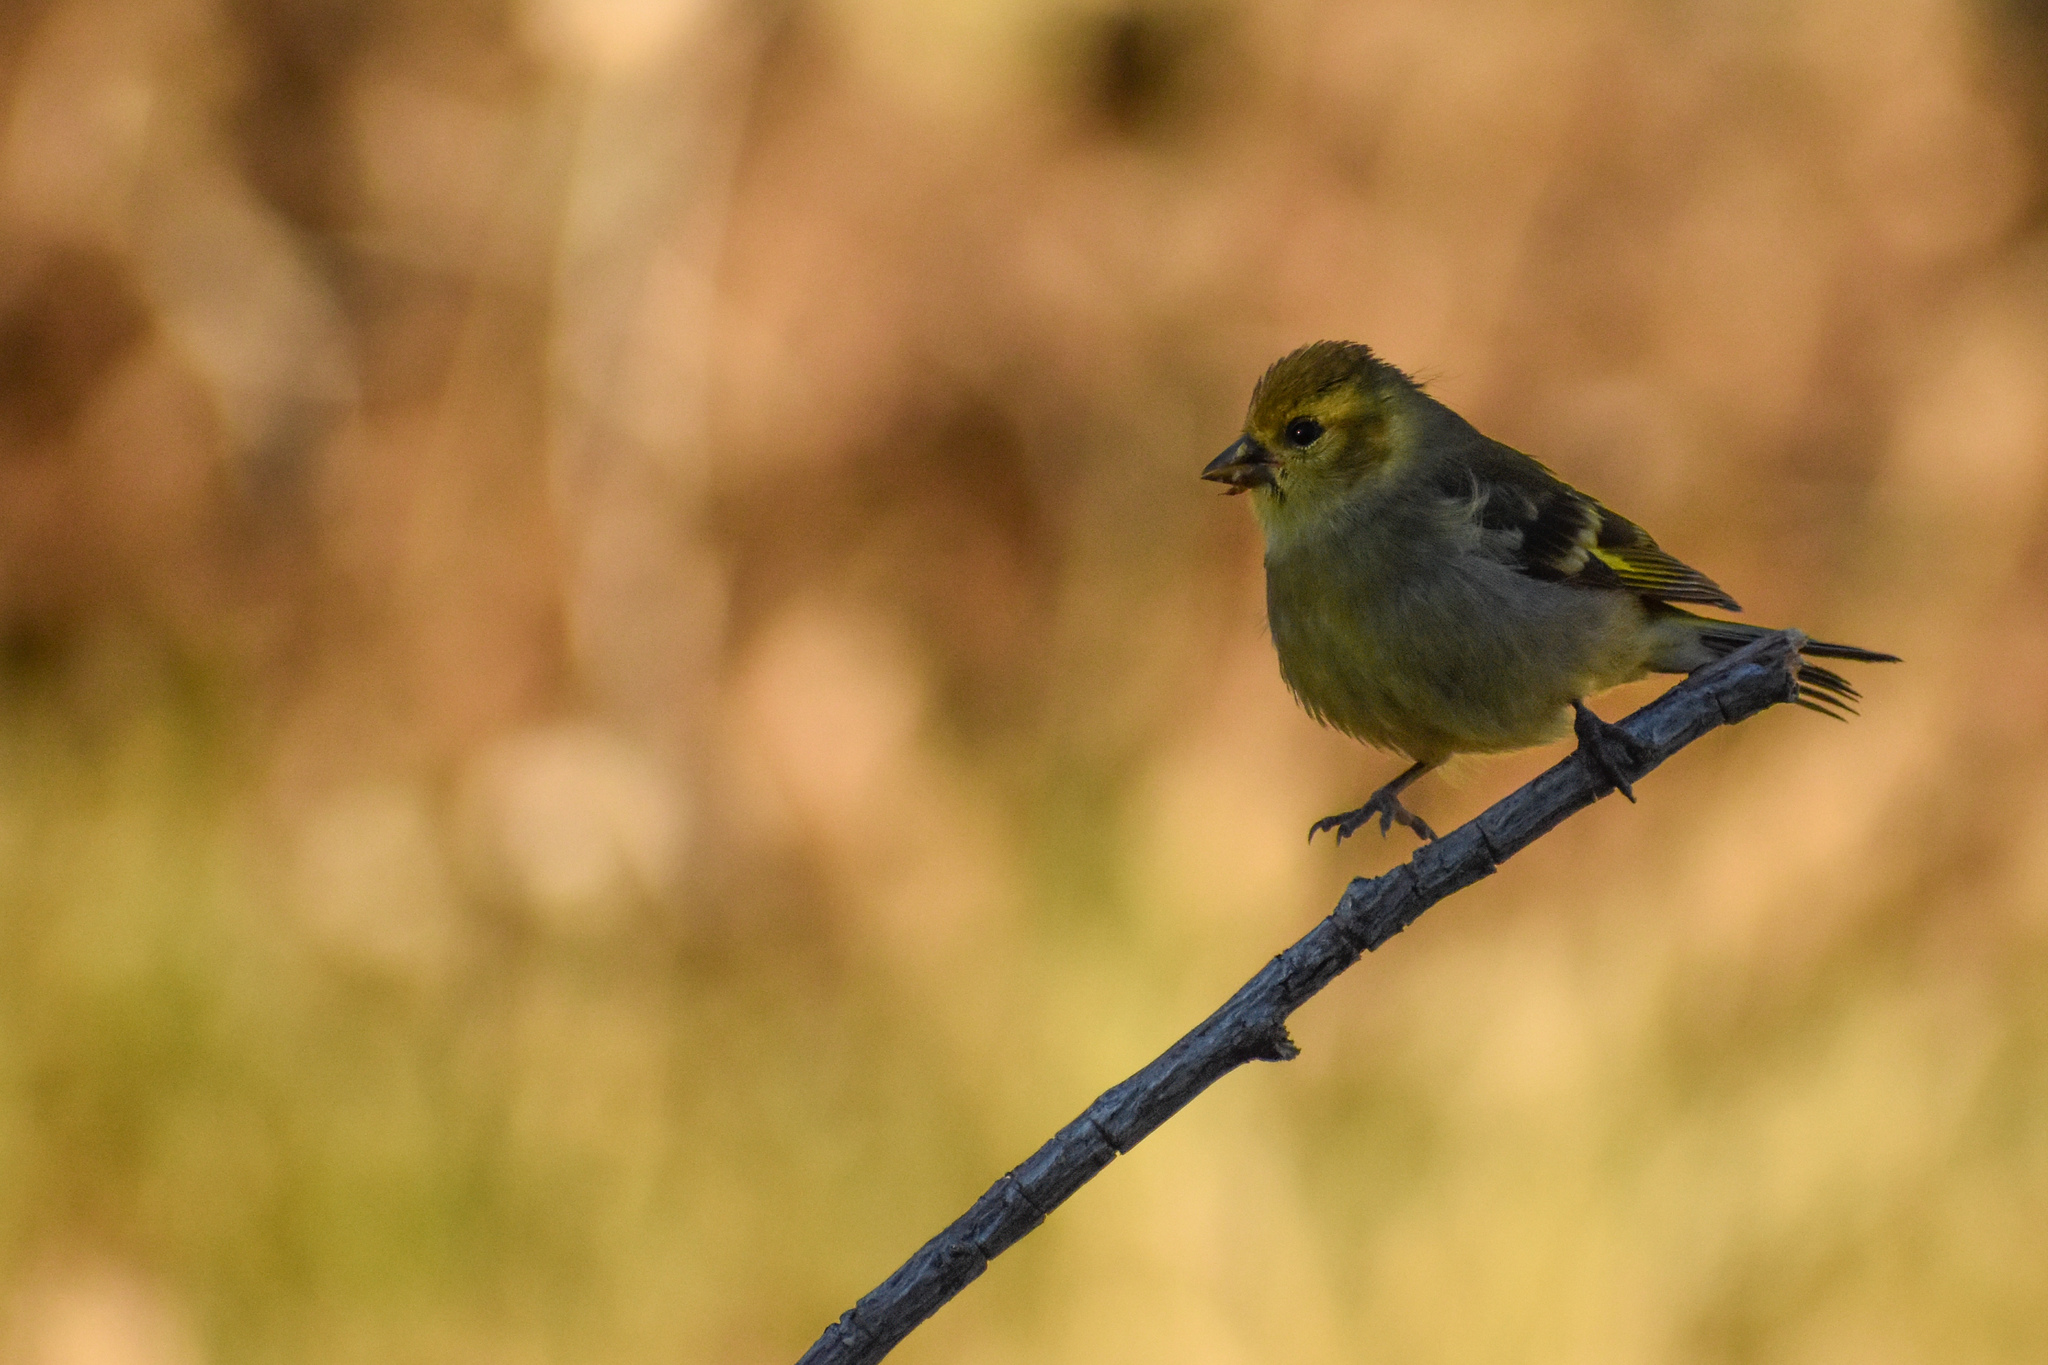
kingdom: Animalia
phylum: Chordata
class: Aves
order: Passeriformes
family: Fringillidae
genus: Spinus
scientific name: Spinus barbatus
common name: Black-chinned siskin
